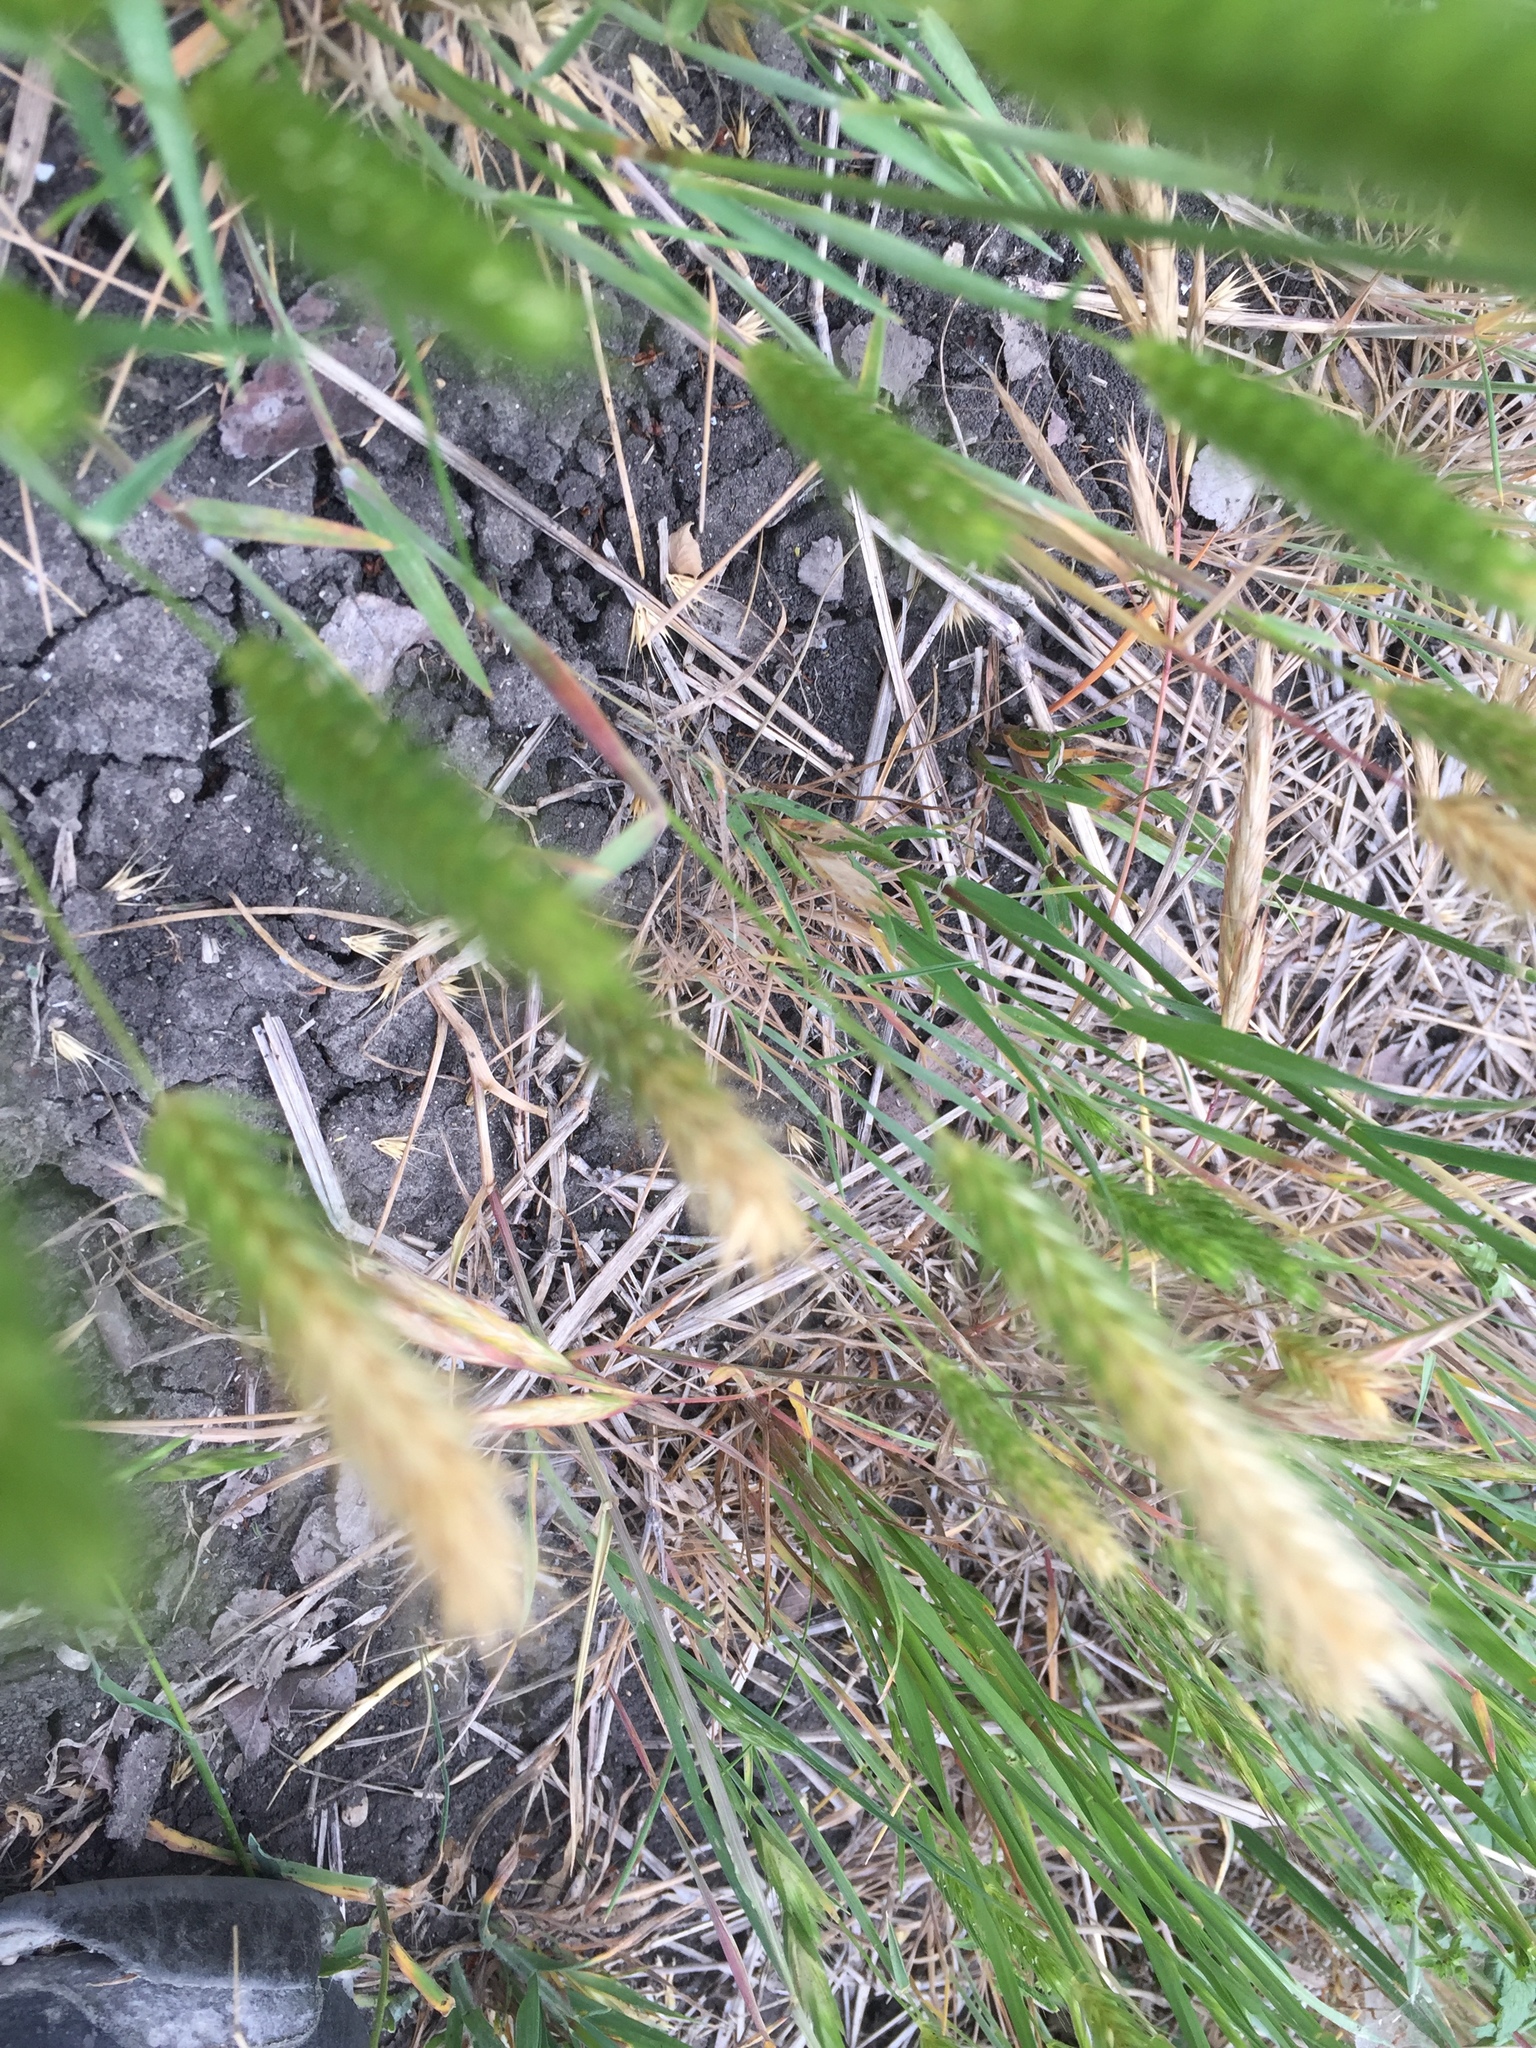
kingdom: Plantae
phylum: Tracheophyta
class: Liliopsida
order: Poales
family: Poaceae
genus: Hordeum
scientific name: Hordeum pusillum
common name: Little barley
